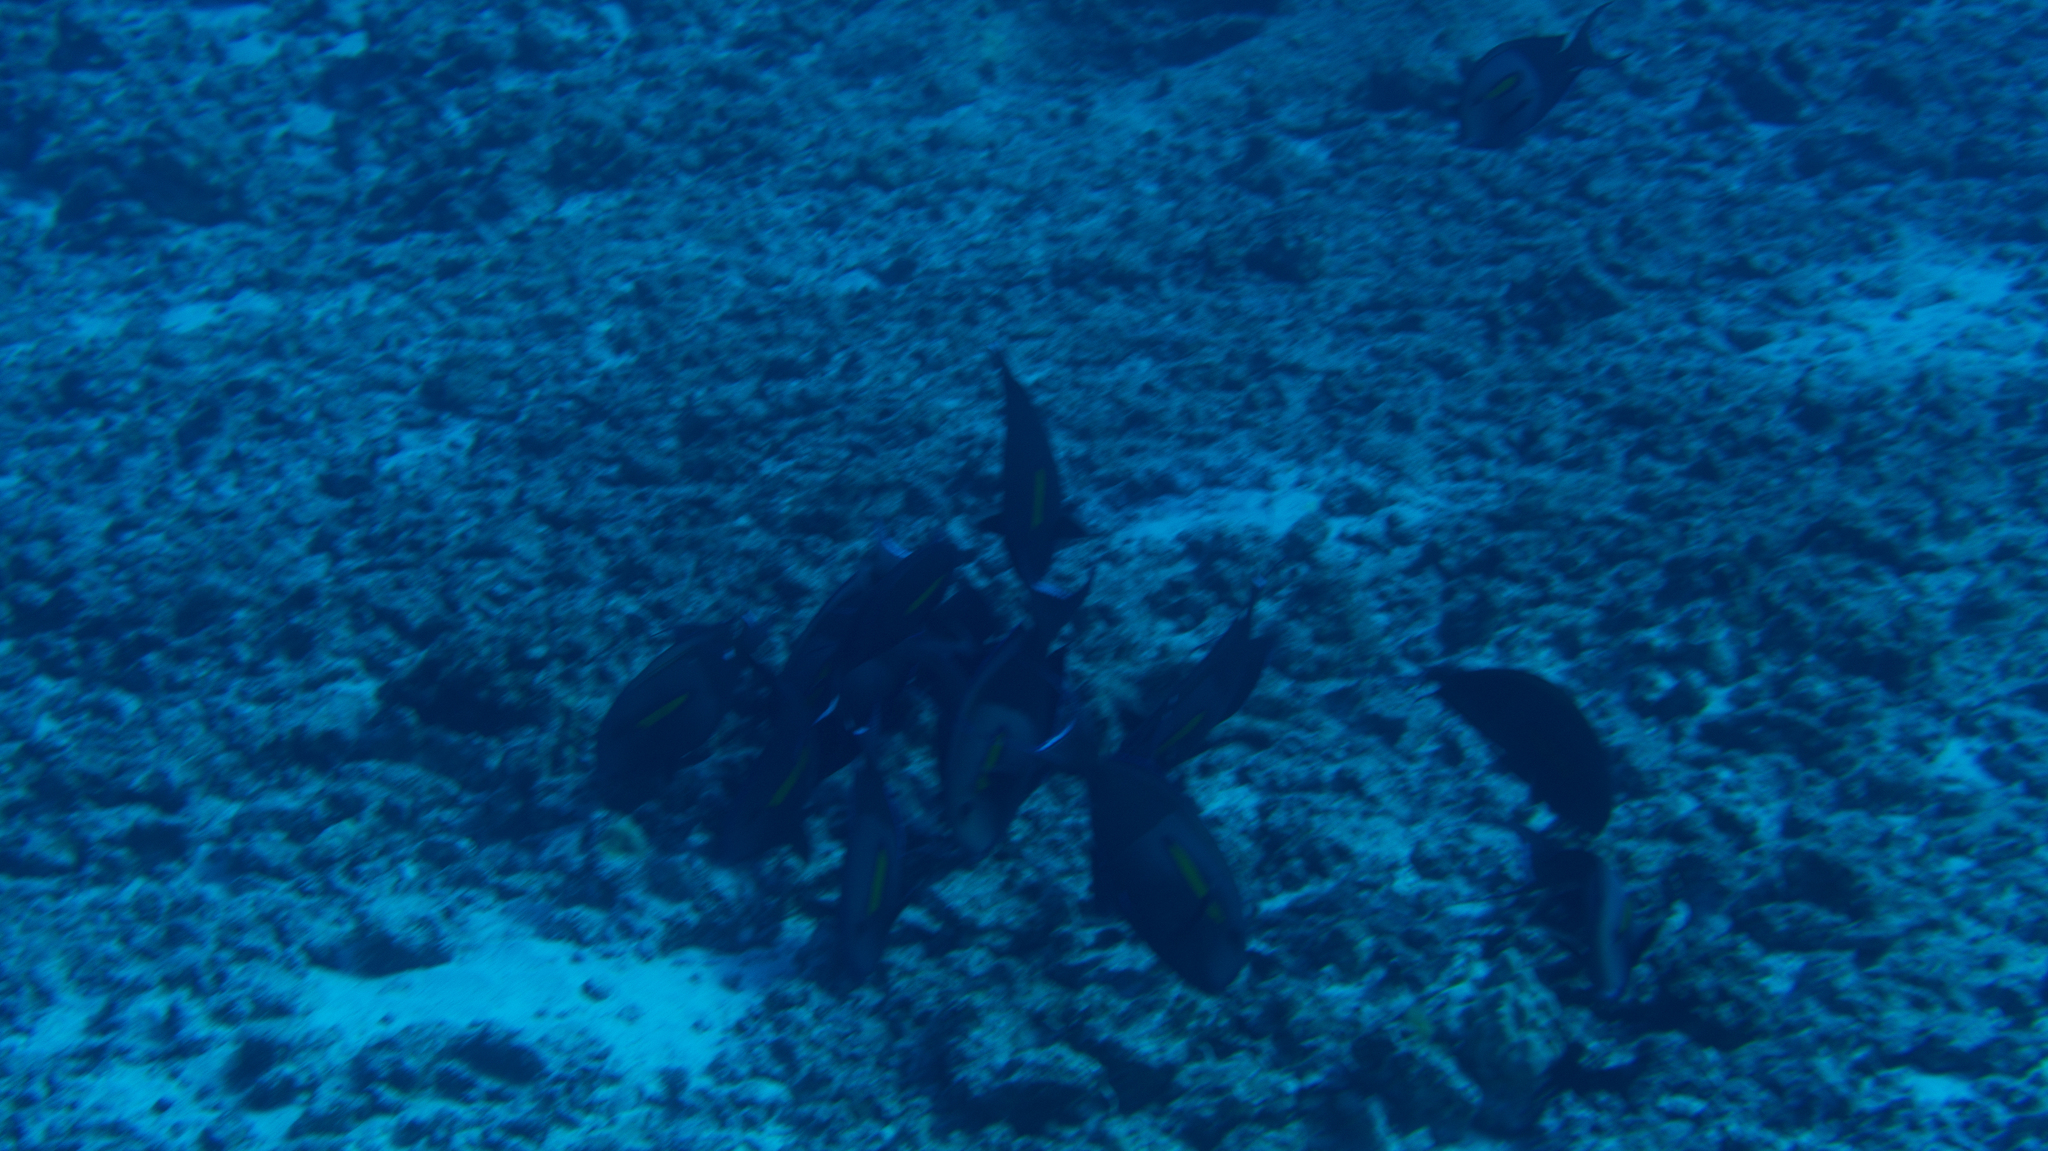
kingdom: Animalia
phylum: Chordata
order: Perciformes
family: Acanthuridae
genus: Acanthurus
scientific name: Acanthurus olivaceus
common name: Gendarme fish
